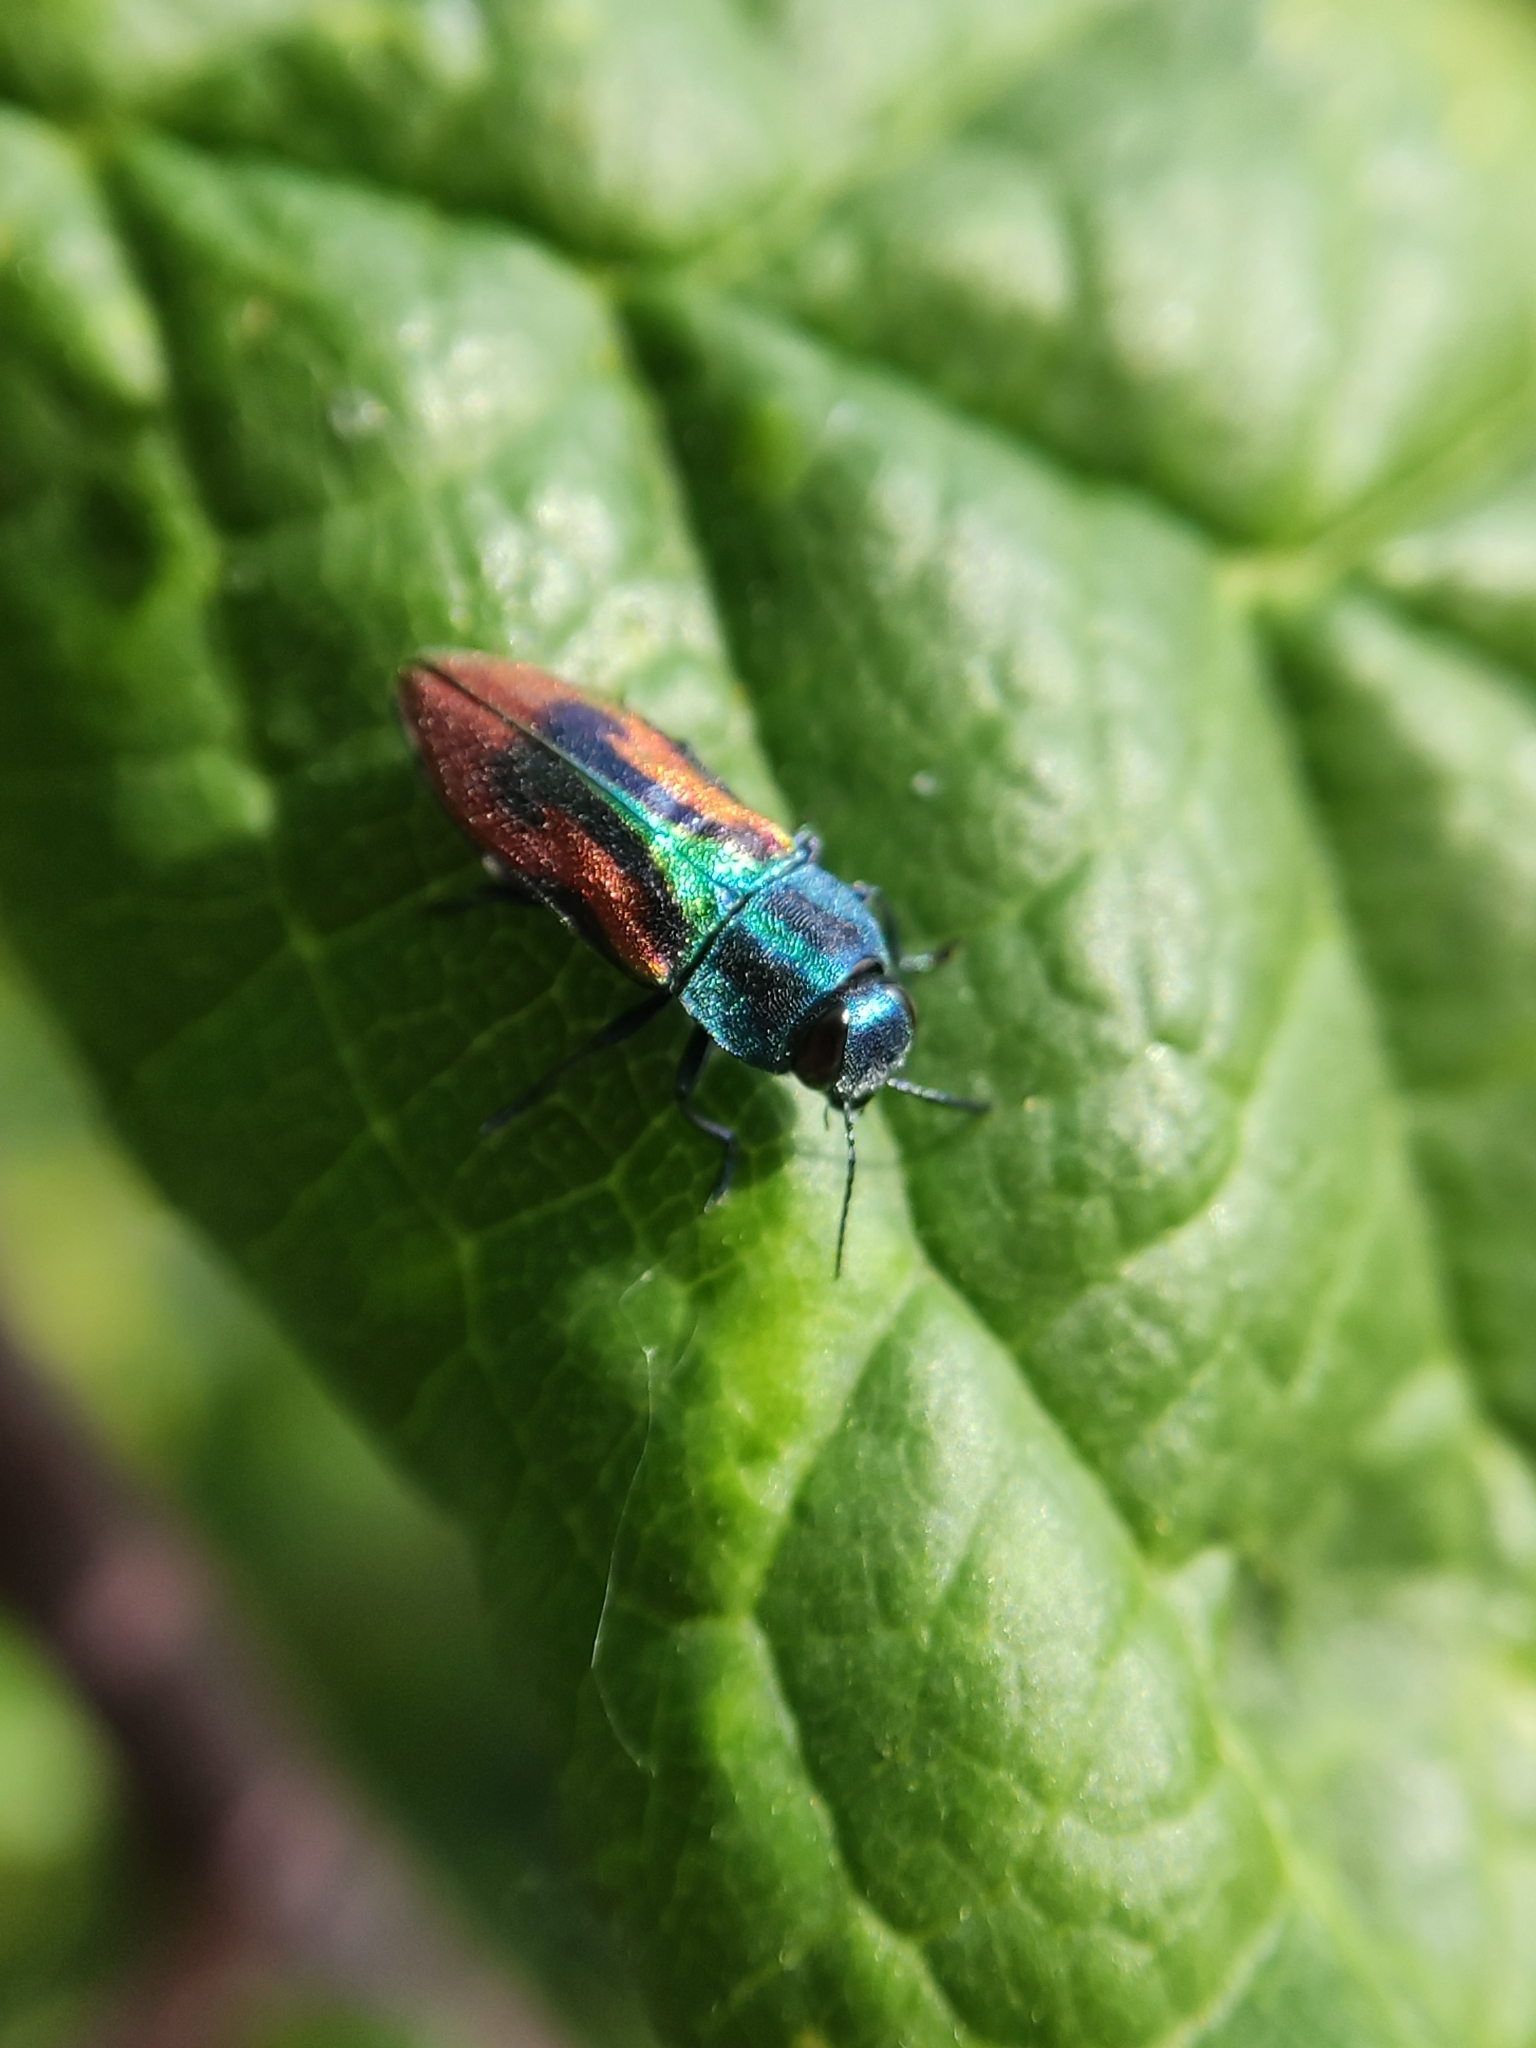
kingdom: Animalia
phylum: Arthropoda
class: Insecta
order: Coleoptera
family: Buprestidae
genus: Anthaxia
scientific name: Anthaxia candens
